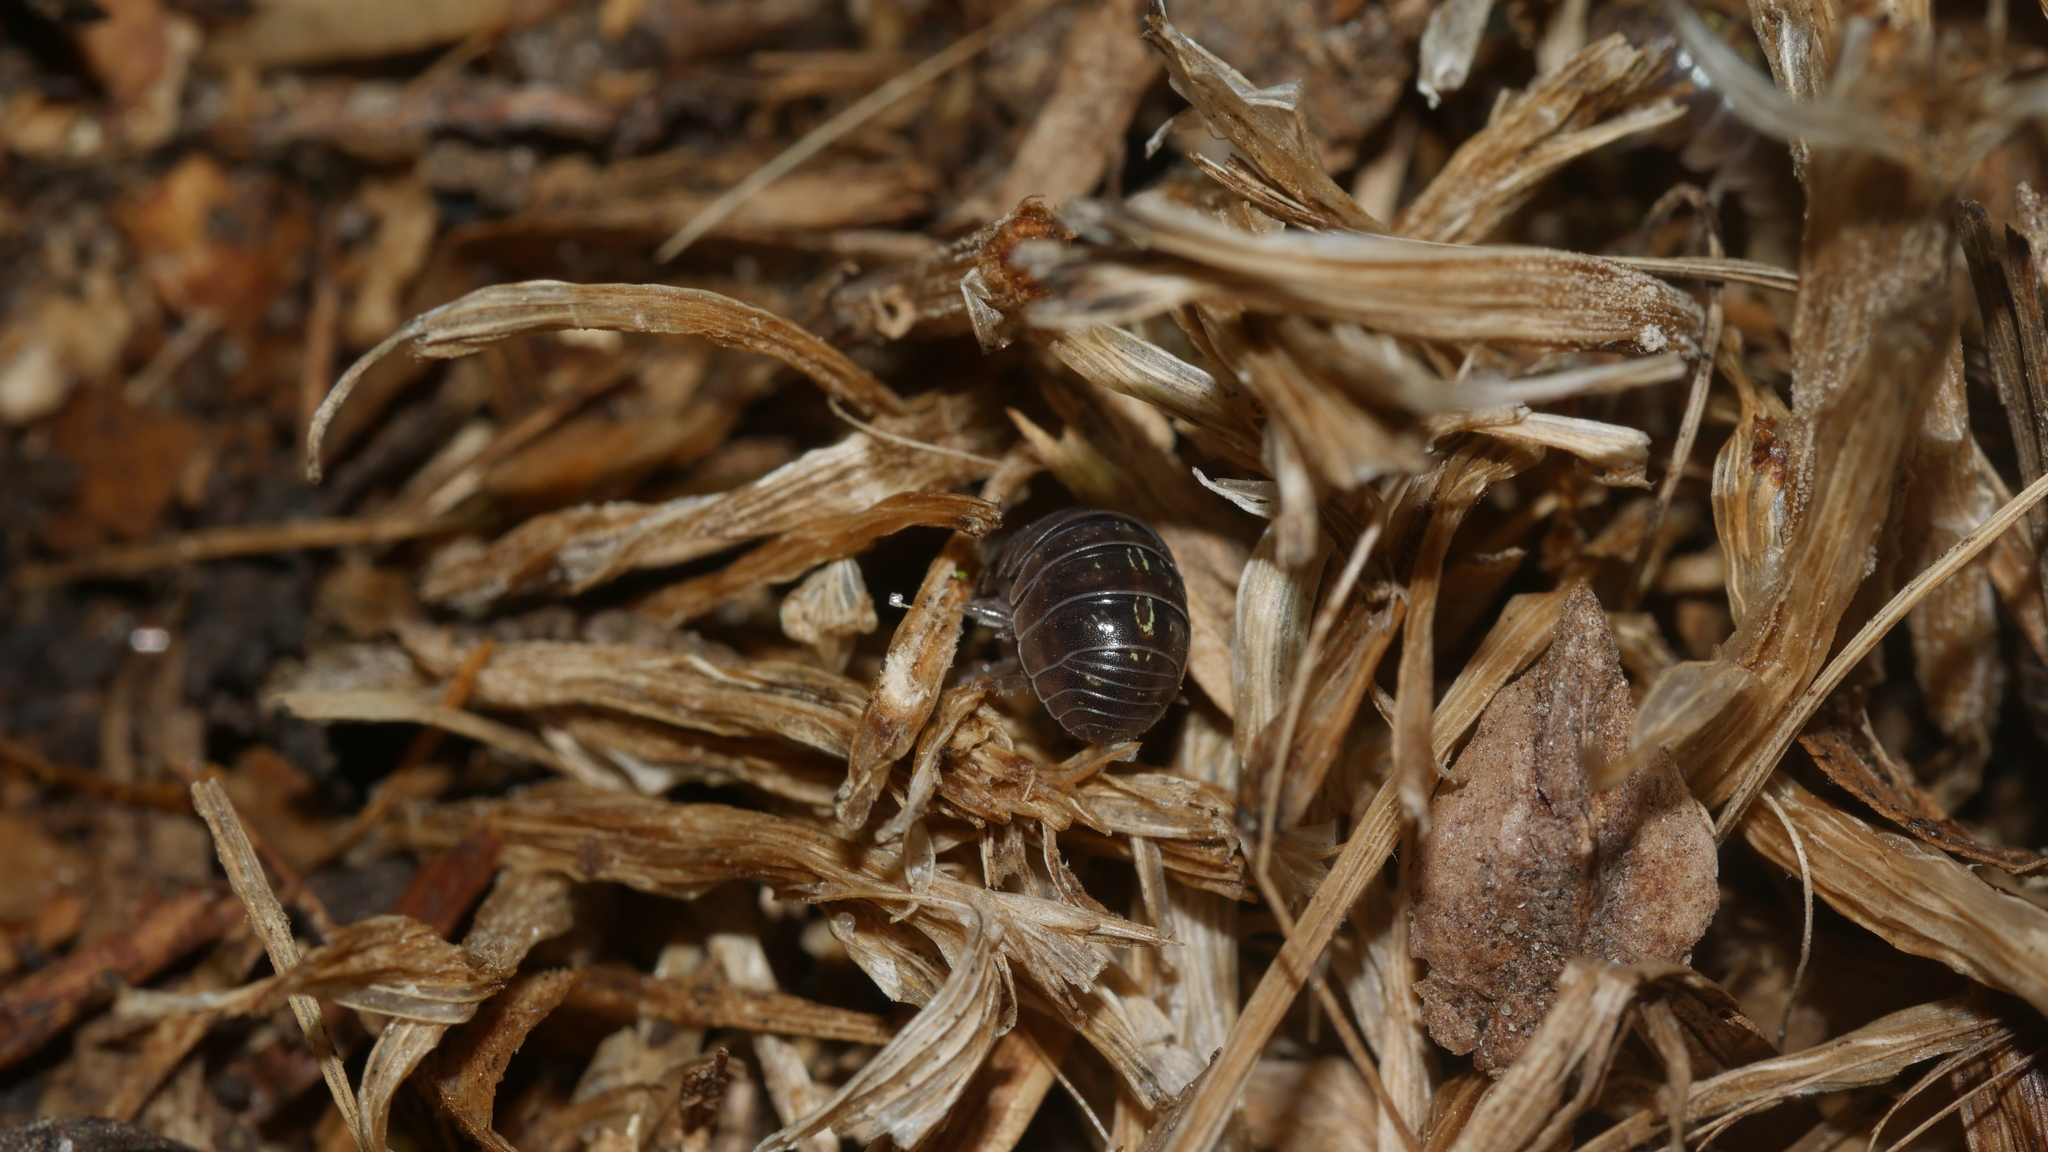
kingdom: Animalia
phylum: Arthropoda
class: Malacostraca
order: Isopoda
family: Armadillidiidae
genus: Armadillidium
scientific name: Armadillidium vulgare
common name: Common pill woodlouse
